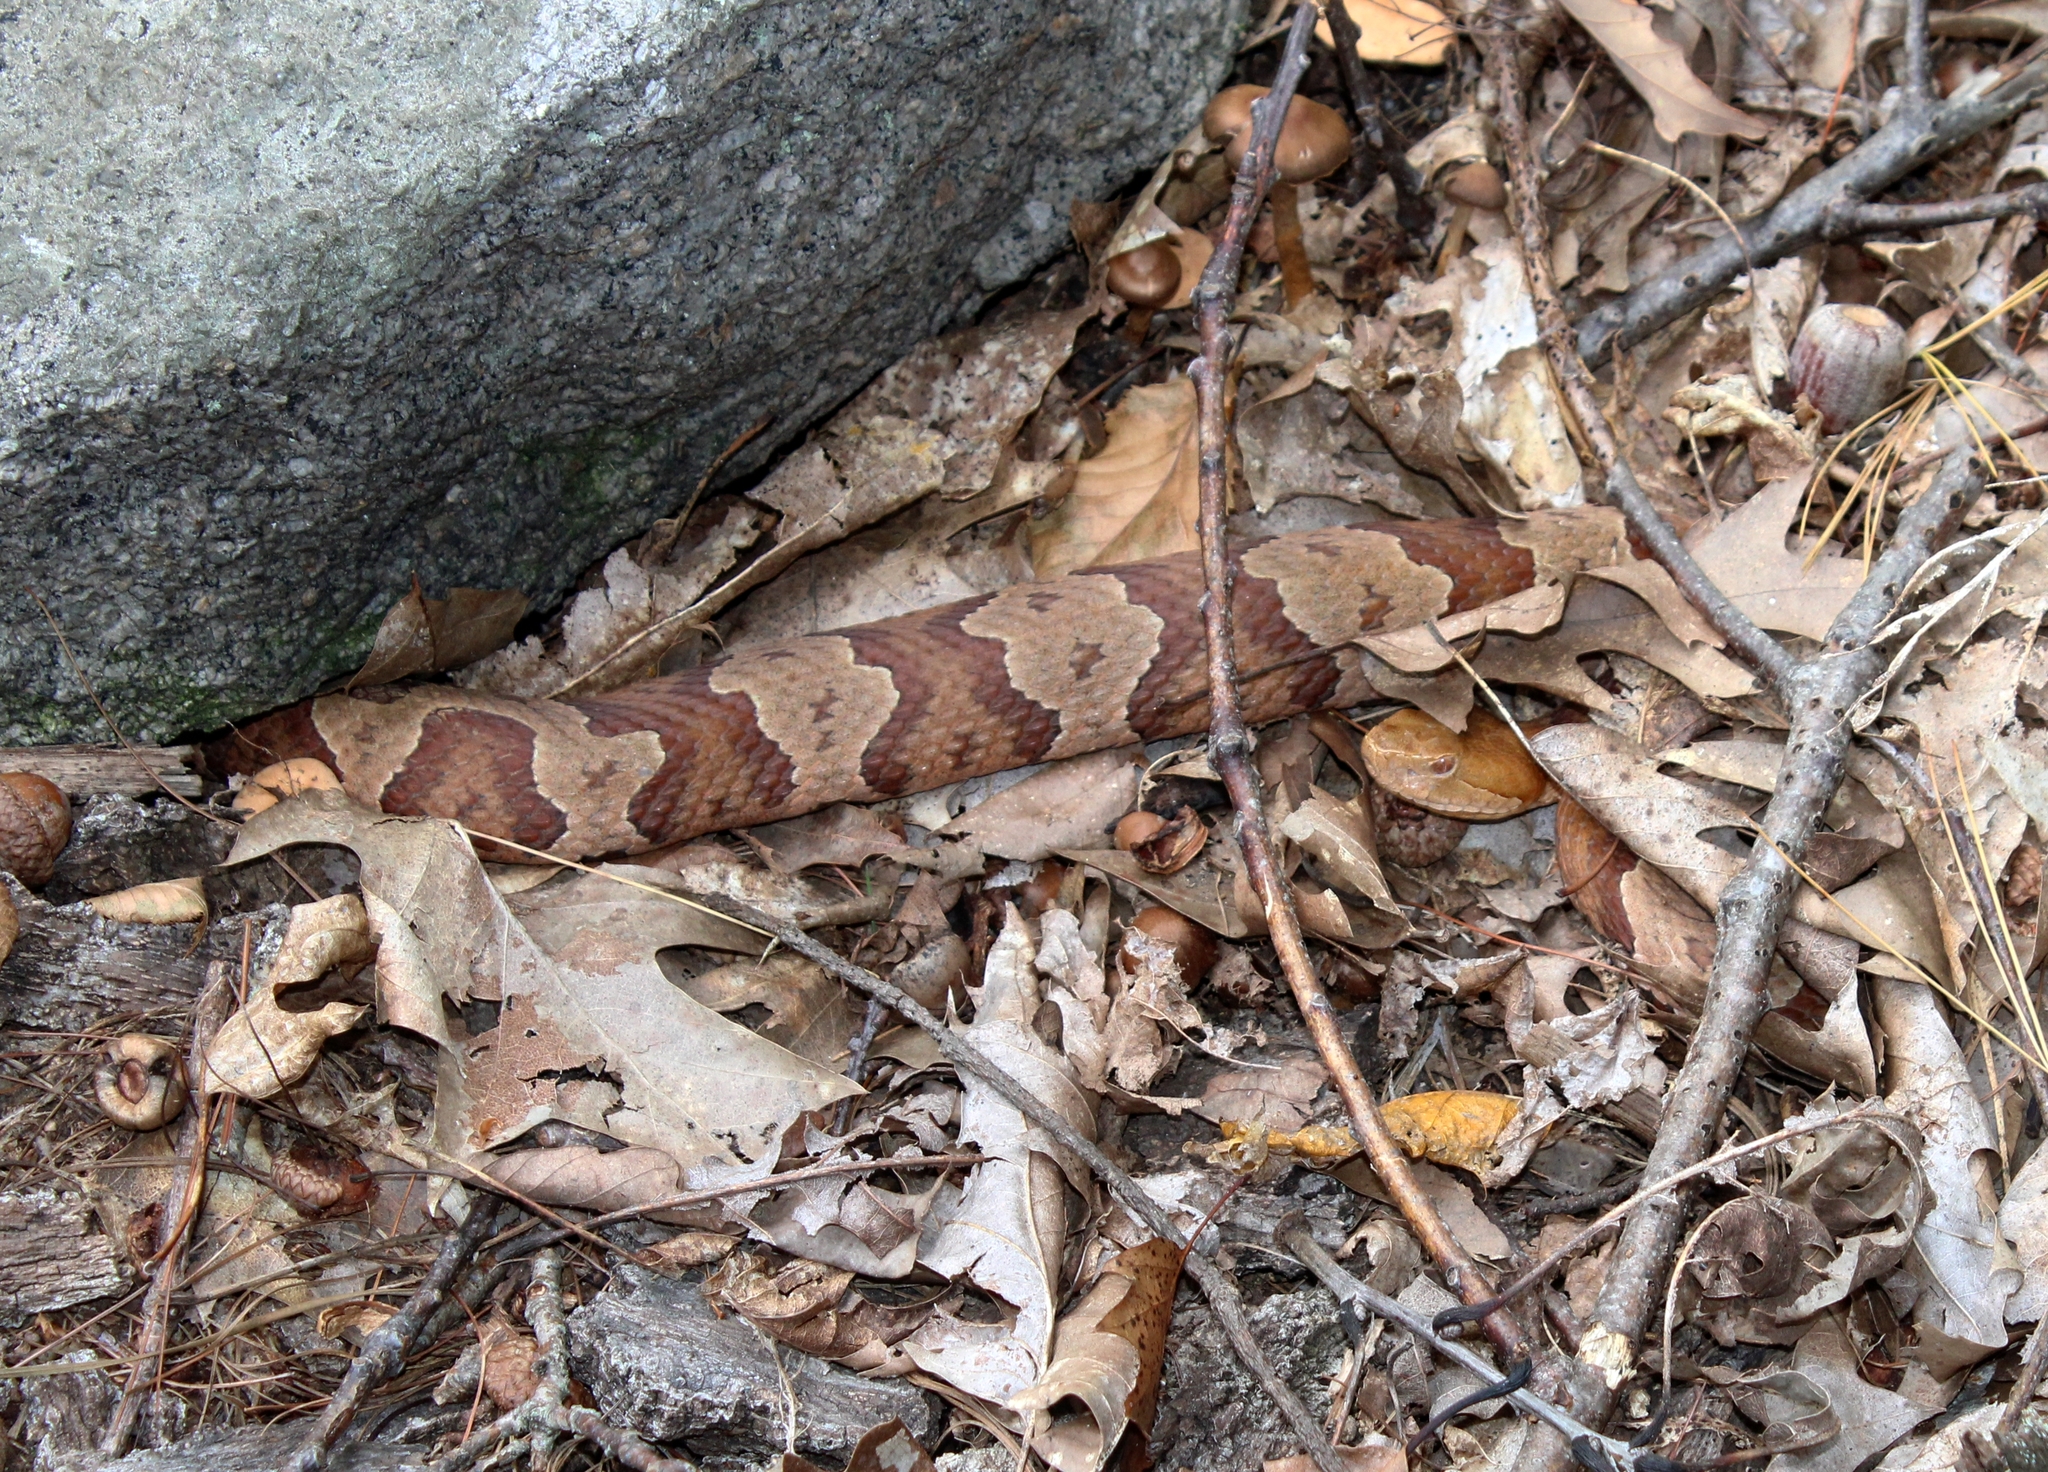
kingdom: Animalia
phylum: Chordata
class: Squamata
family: Viperidae
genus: Agkistrodon
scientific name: Agkistrodon contortrix
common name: Northern copperhead
